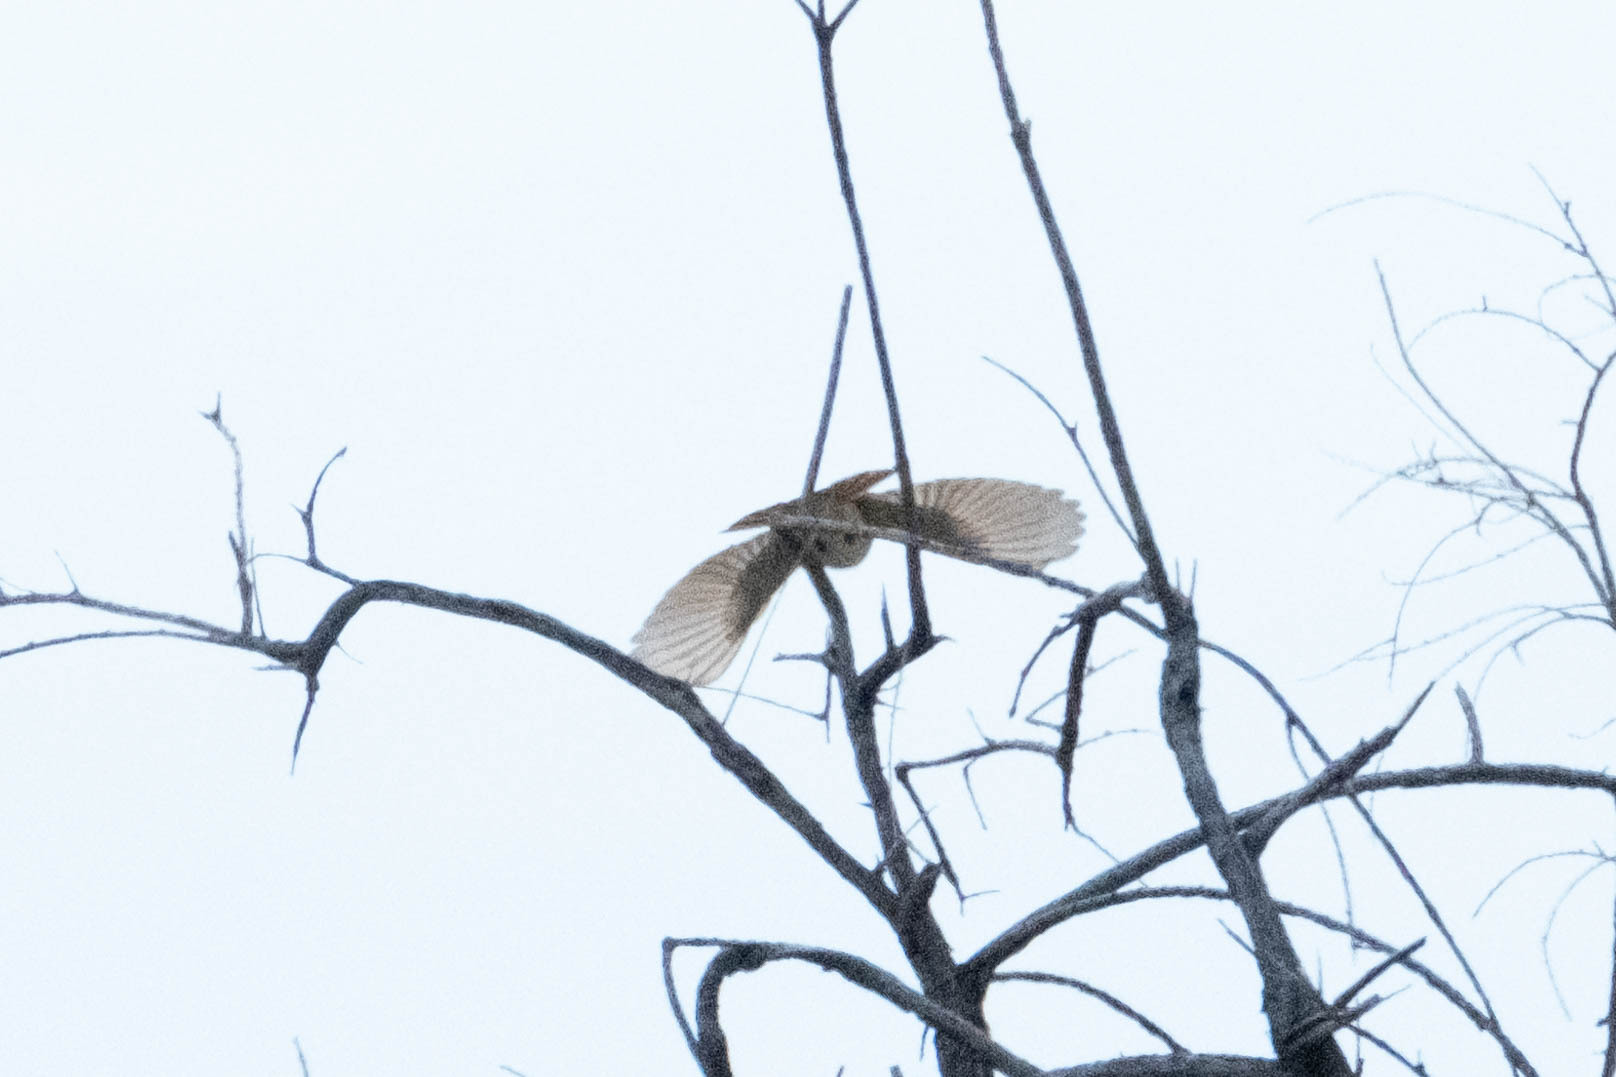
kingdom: Animalia
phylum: Chordata
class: Aves
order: Passeriformes
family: Tyrannidae
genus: Myiarchus
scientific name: Myiarchus cinerascens
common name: Ash-throated flycatcher
